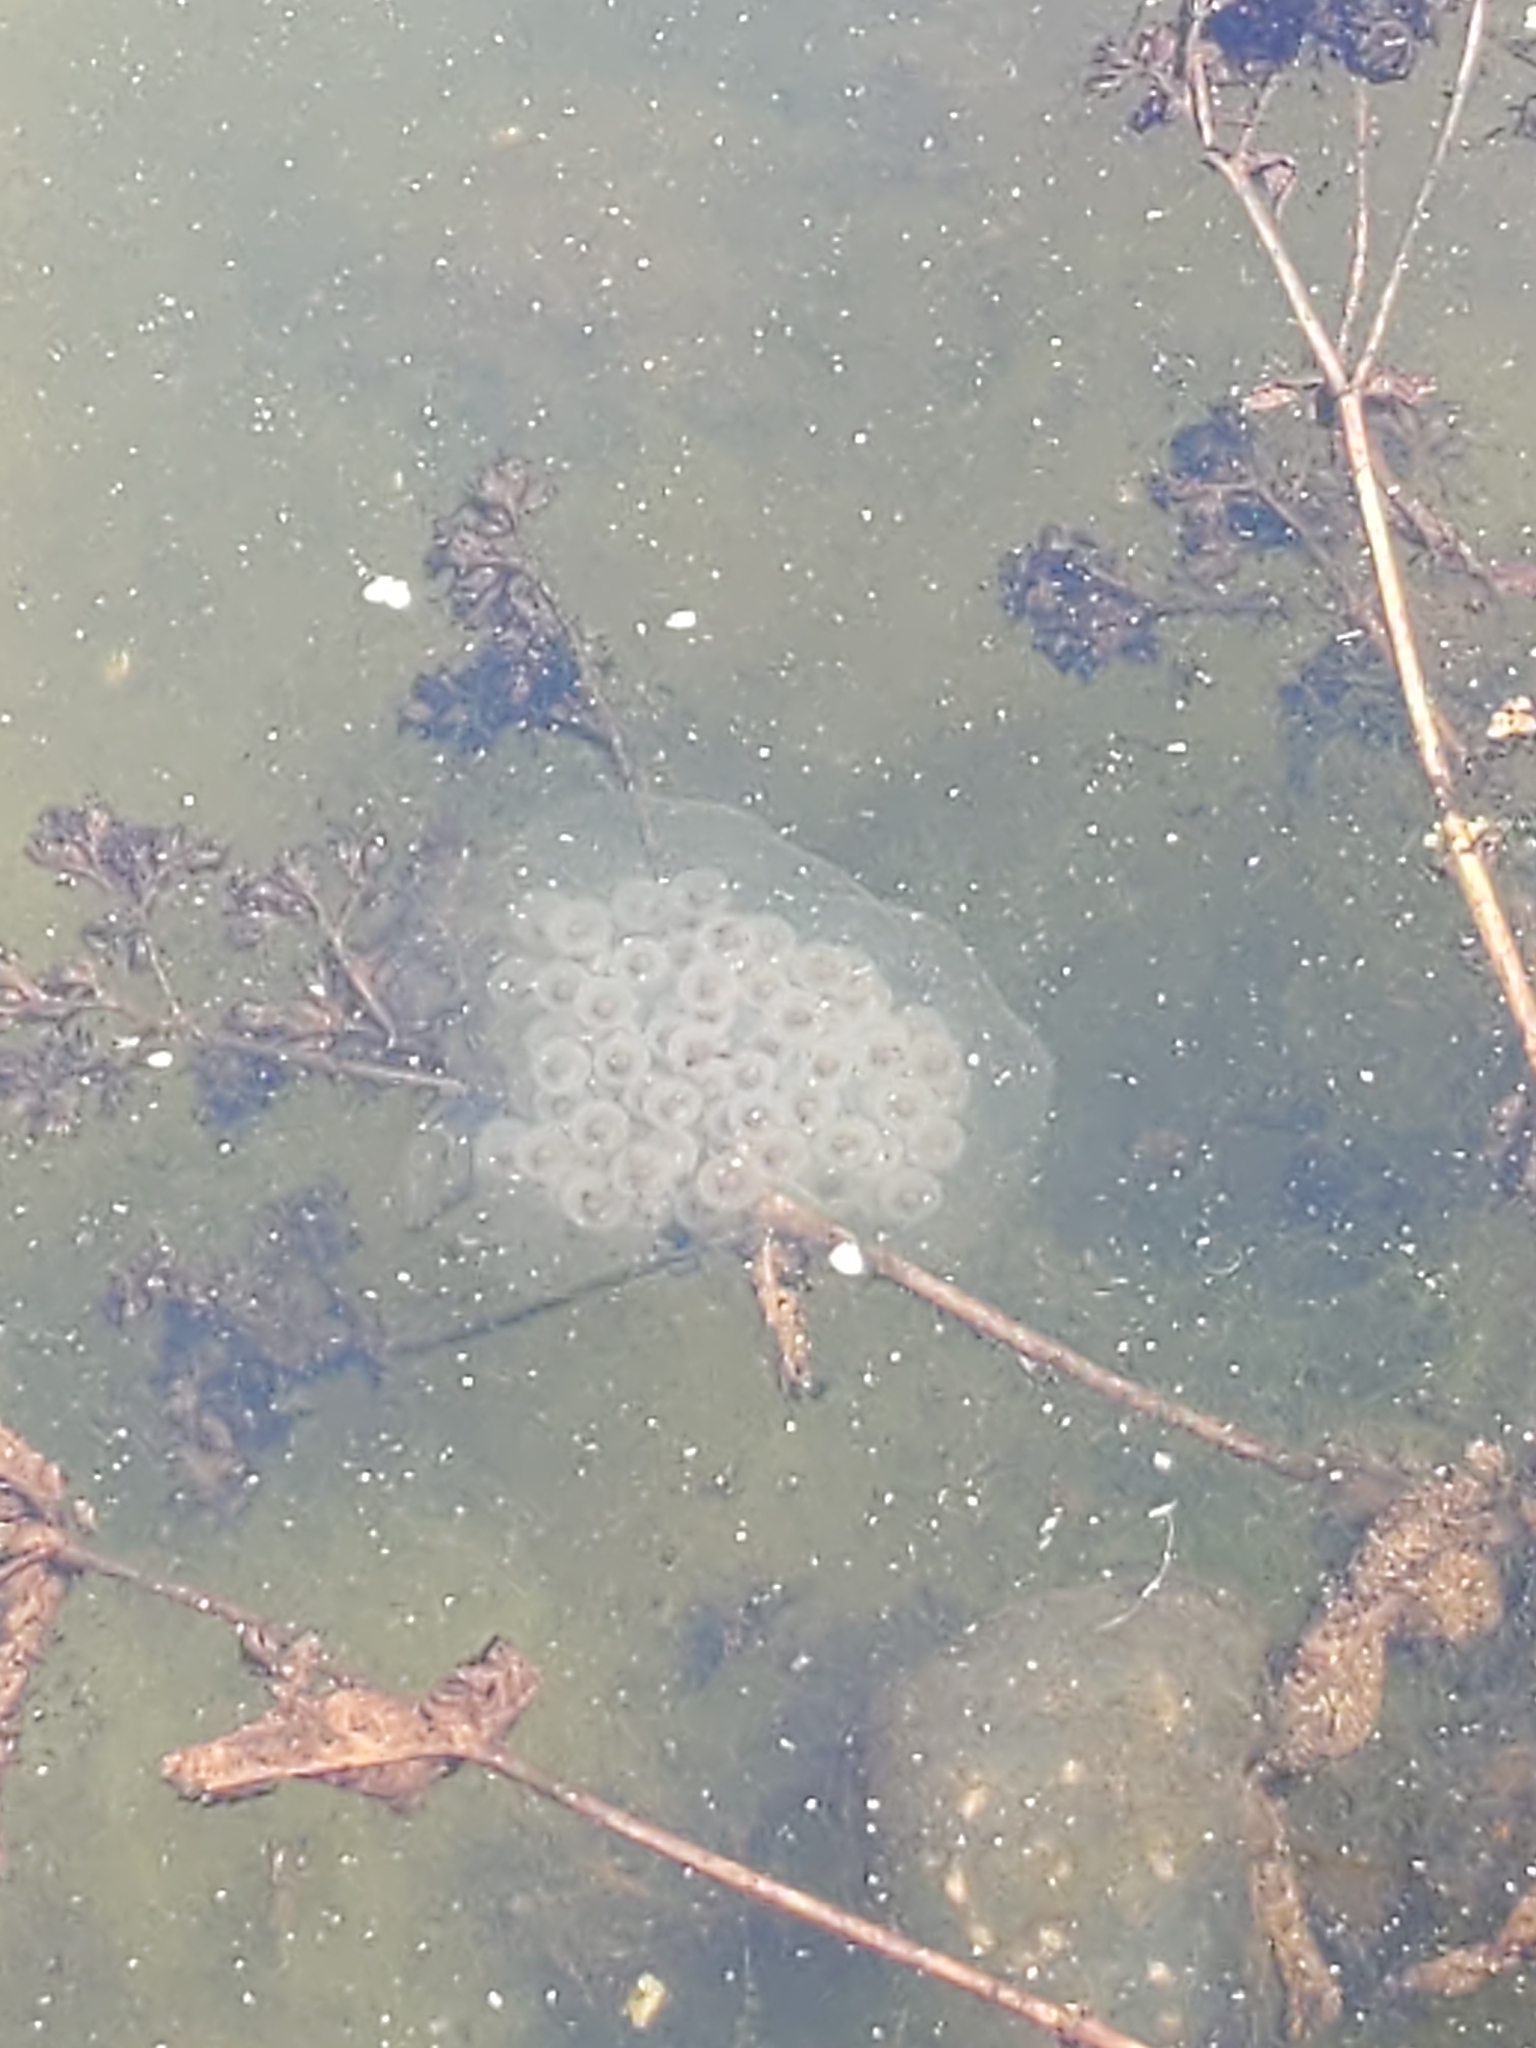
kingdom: Animalia
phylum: Chordata
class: Amphibia
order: Caudata
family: Ambystomatidae
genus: Ambystoma
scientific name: Ambystoma maculatum
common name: Spotted salamander
